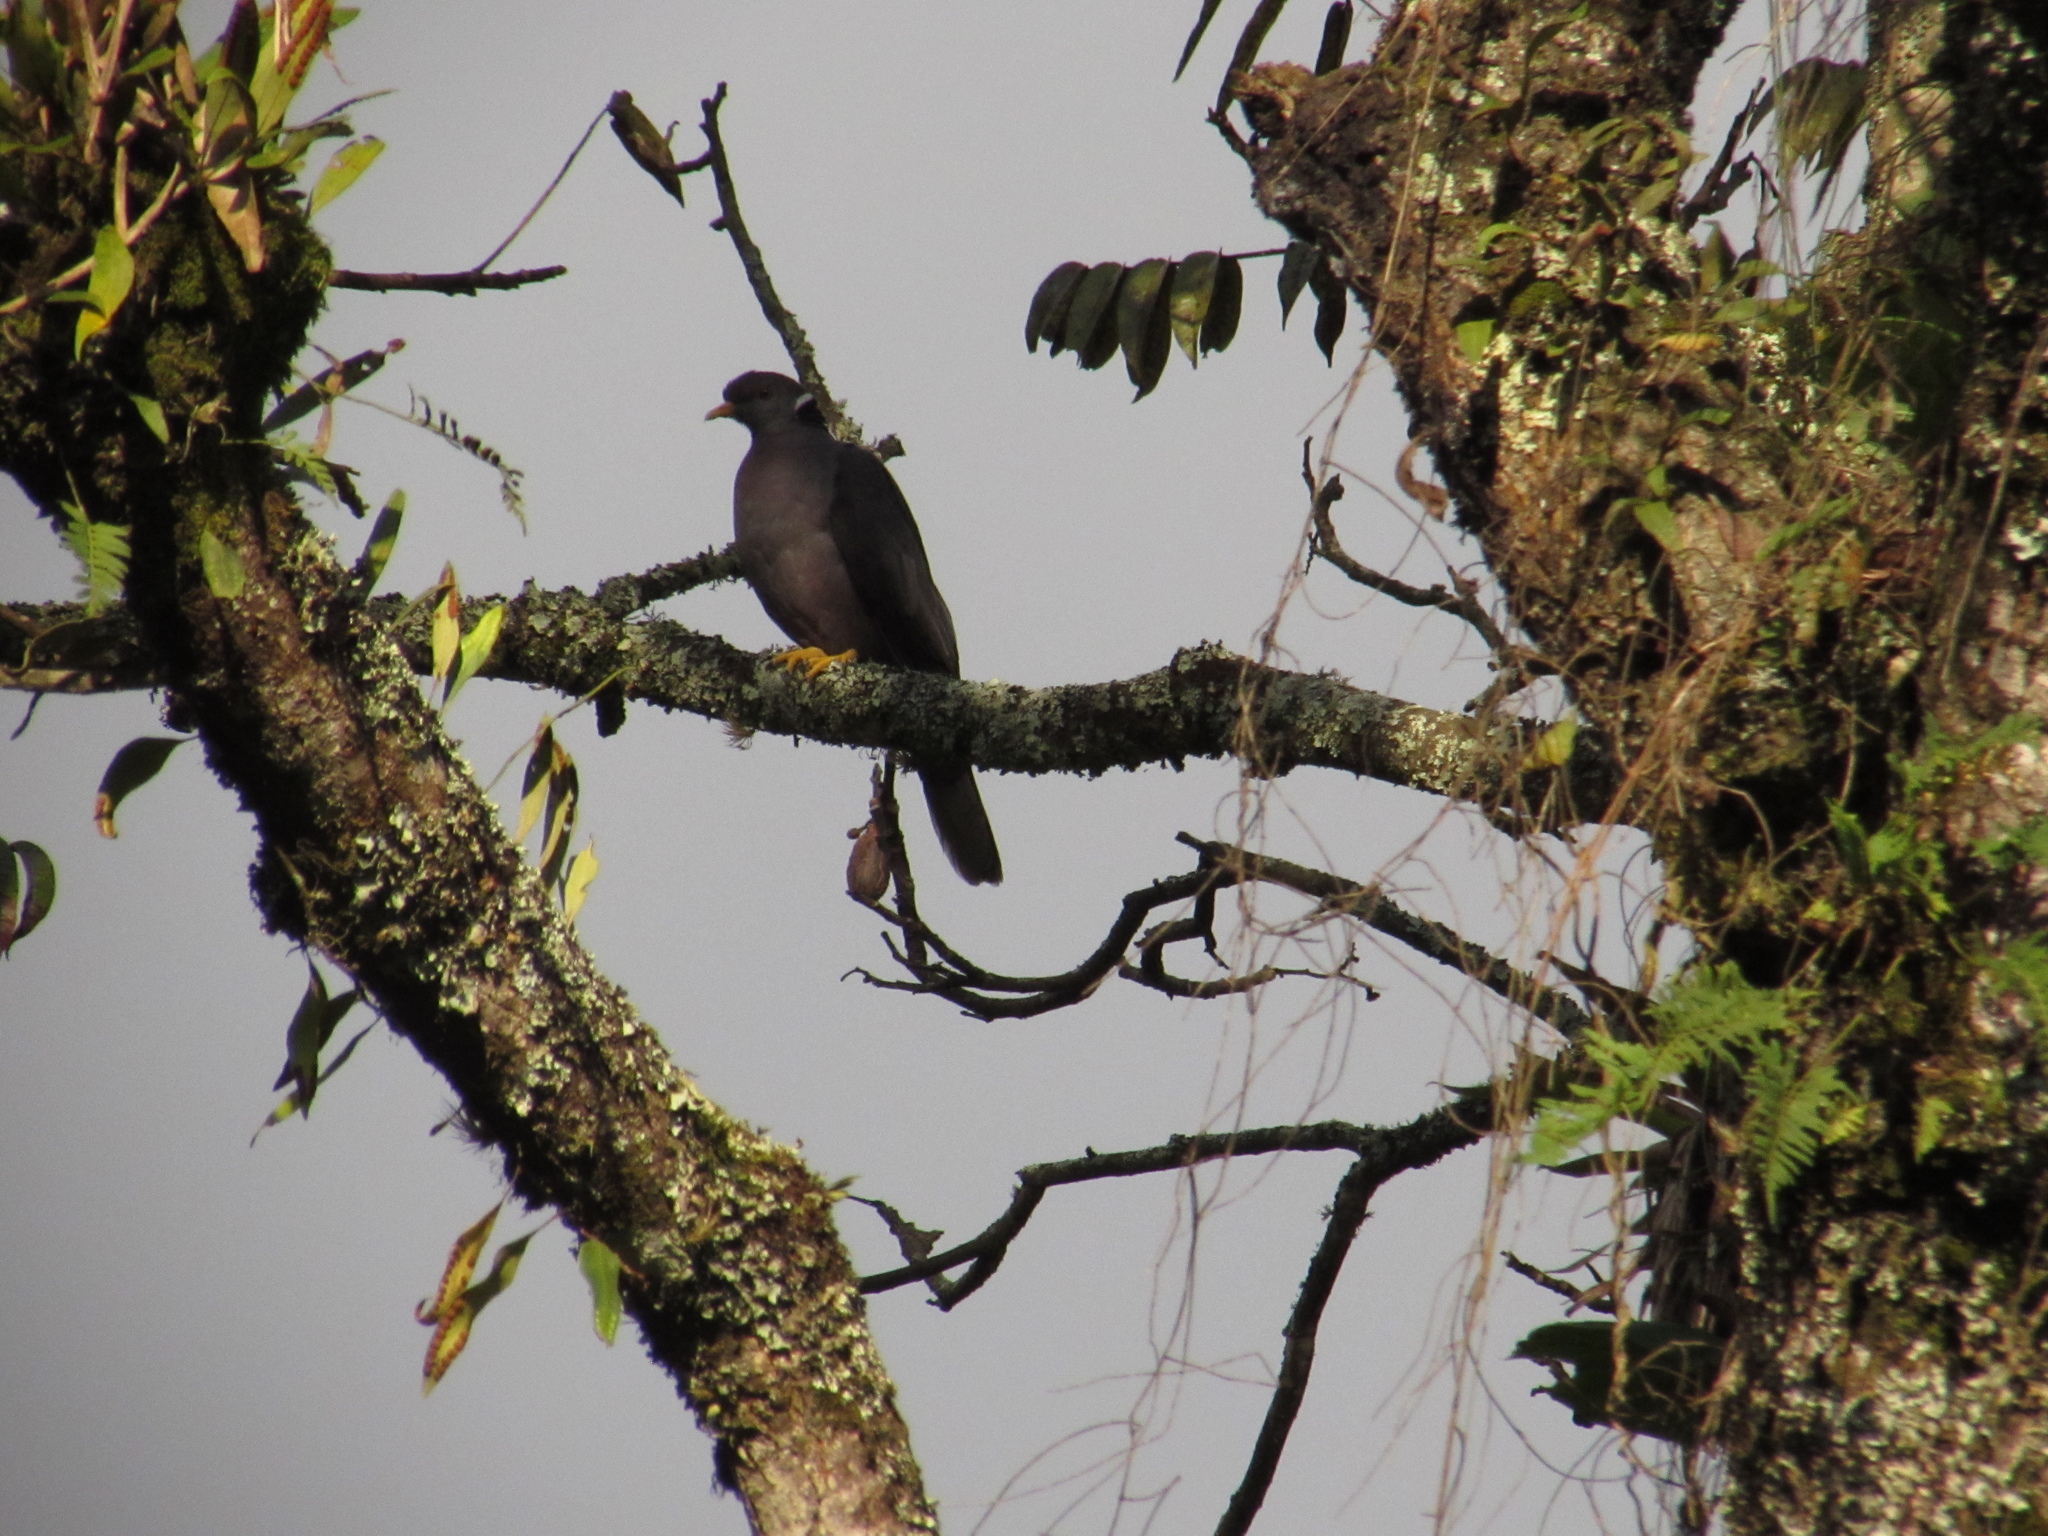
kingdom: Animalia
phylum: Chordata
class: Aves
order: Columbiformes
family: Columbidae
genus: Patagioenas
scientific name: Patagioenas fasciata
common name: Band-tailed pigeon
